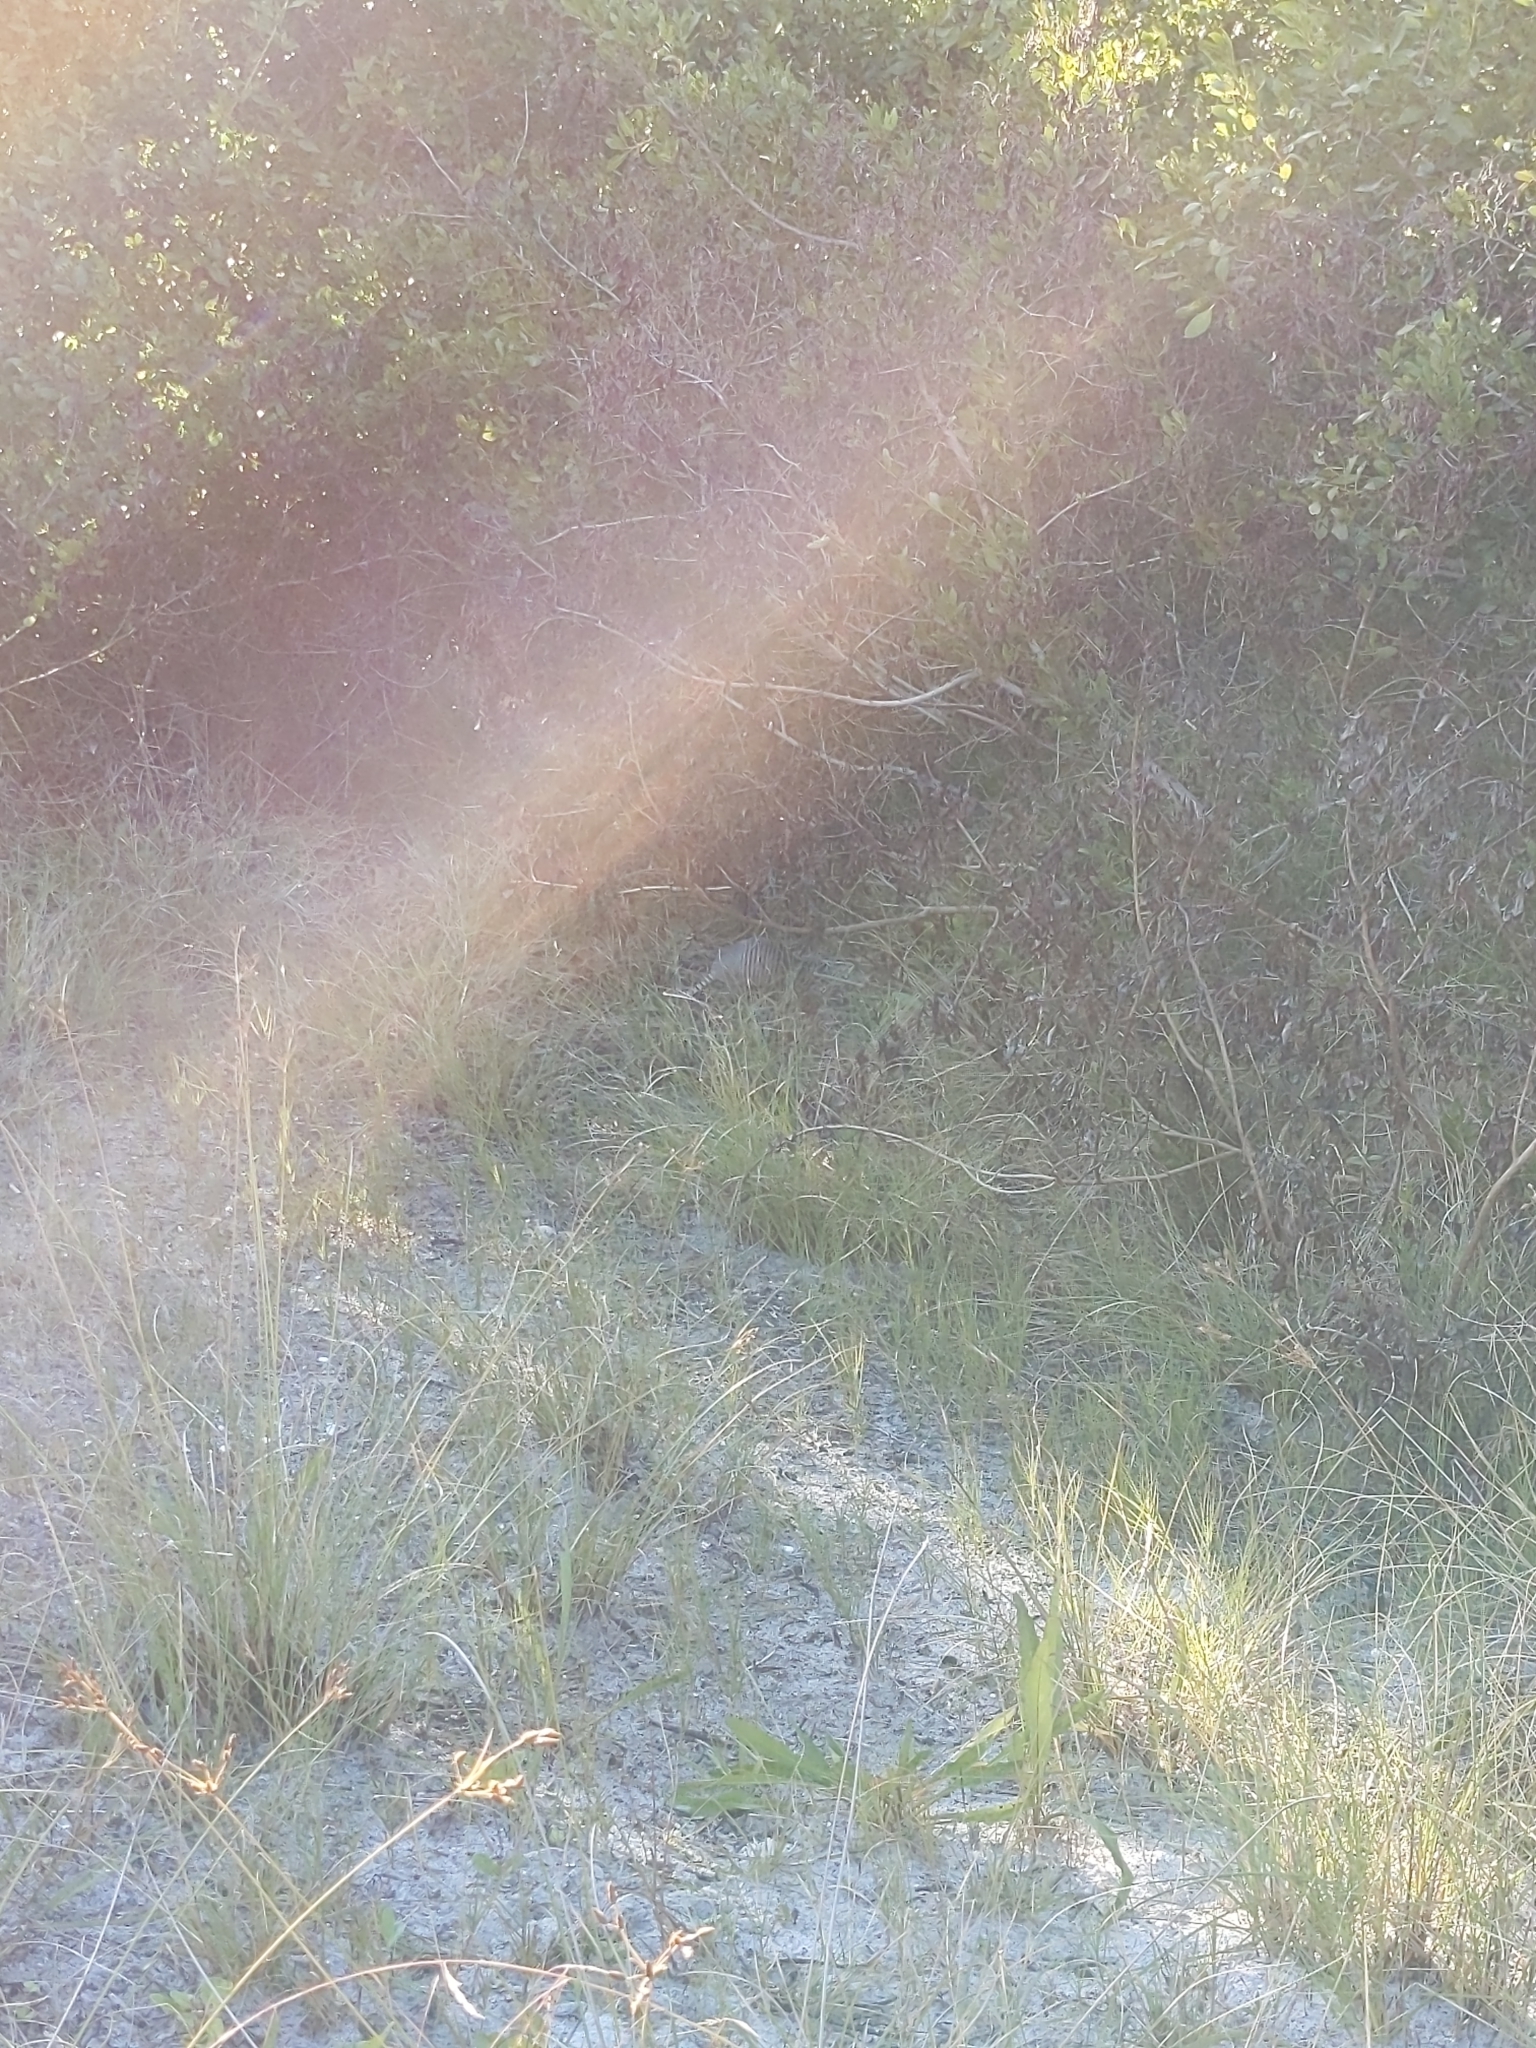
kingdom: Animalia
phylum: Chordata
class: Mammalia
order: Cingulata
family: Dasypodidae
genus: Dasypus
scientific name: Dasypus novemcinctus
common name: Nine-banded armadillo
